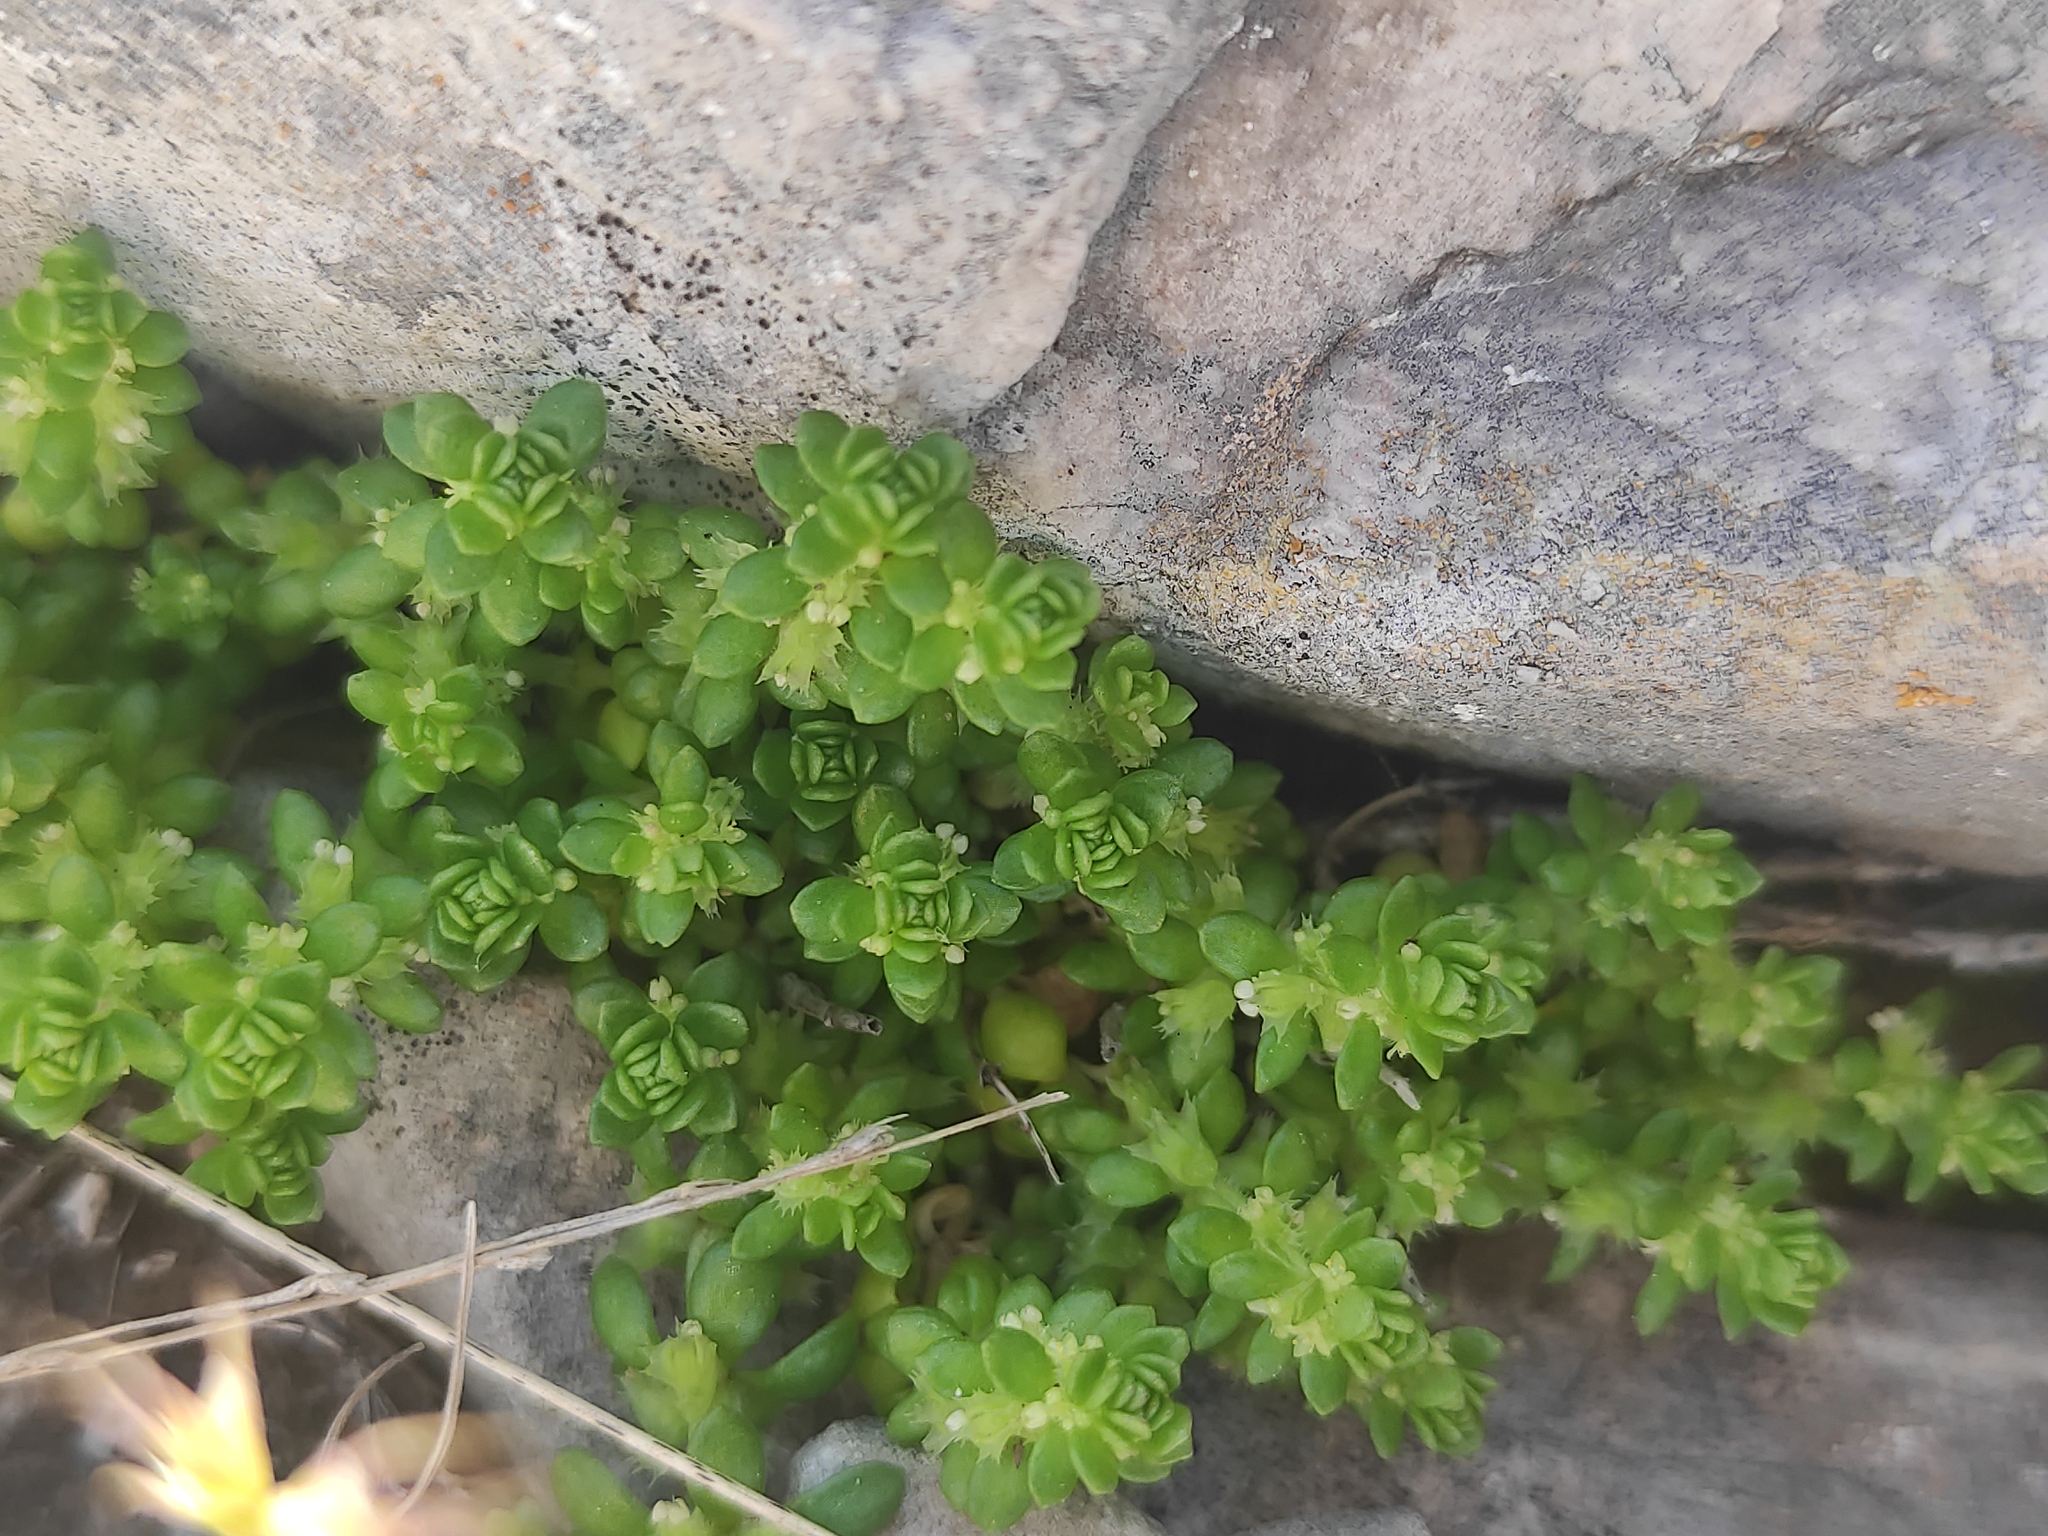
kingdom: Plantae
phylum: Tracheophyta
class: Magnoliopsida
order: Gentianales
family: Rubiaceae
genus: Valantia
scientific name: Valantia muralis
